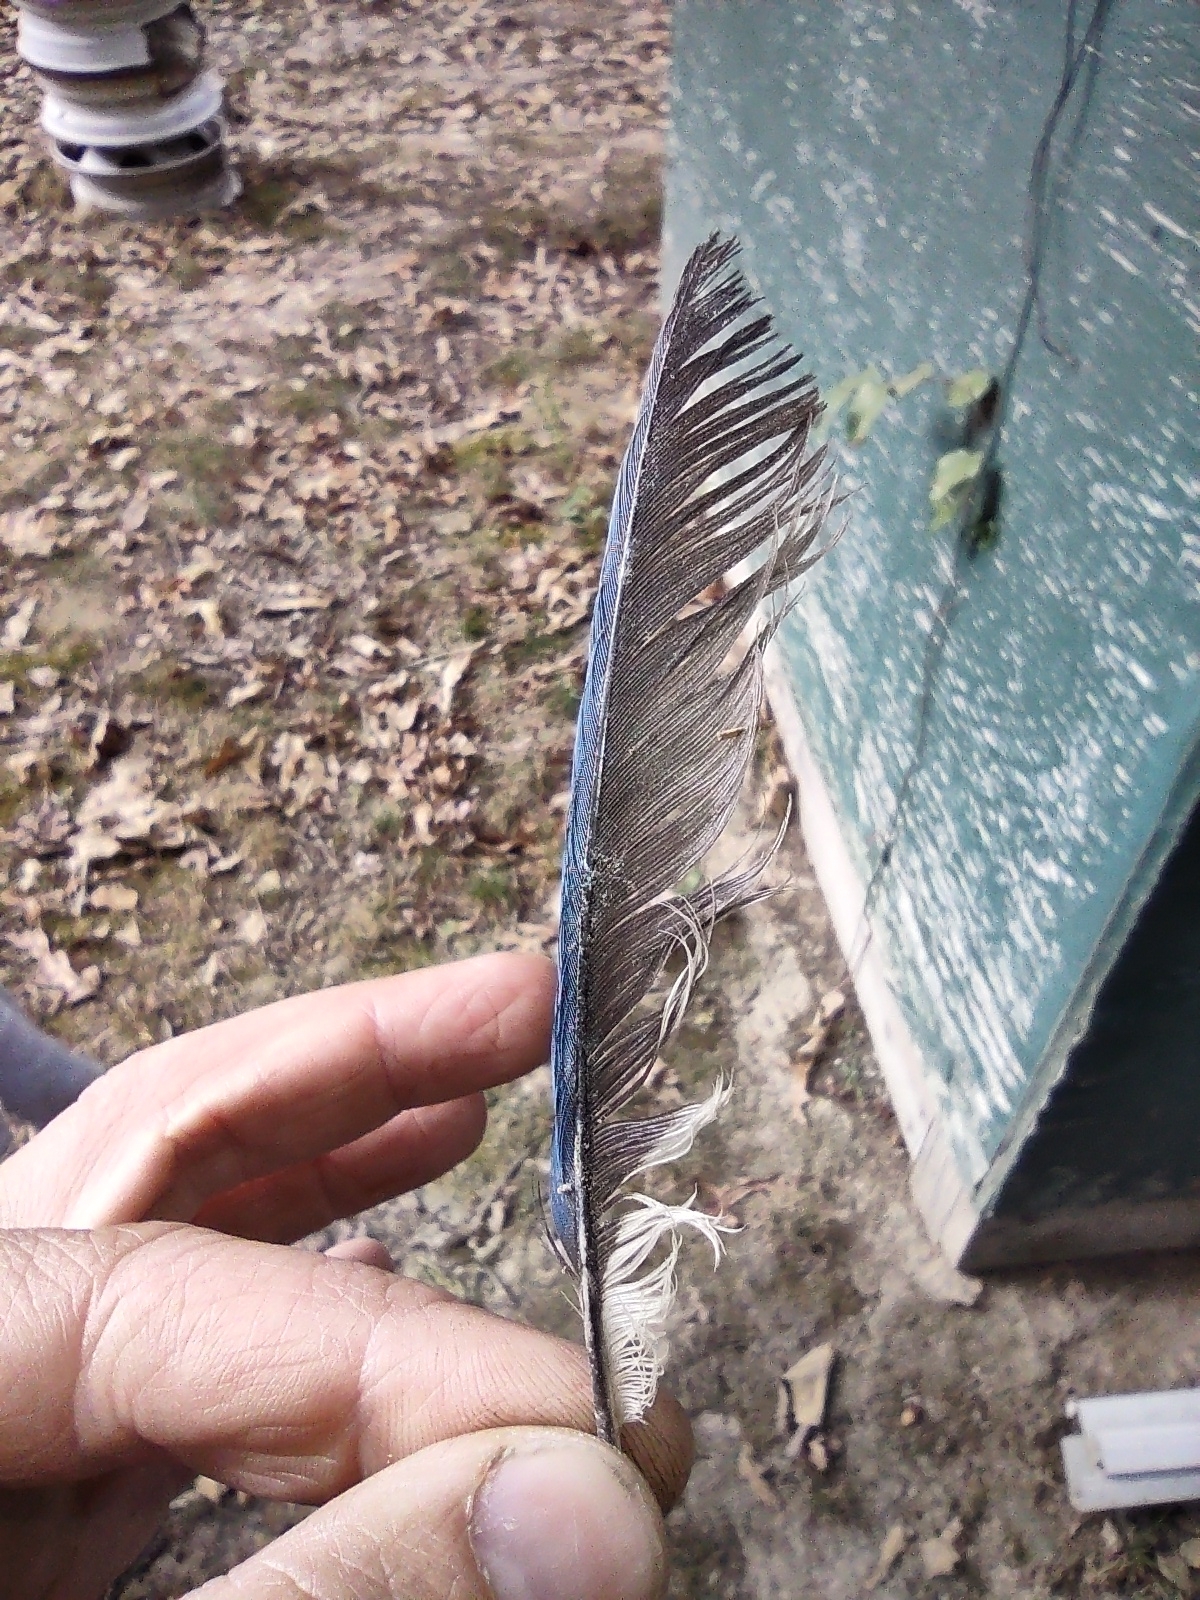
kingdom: Animalia
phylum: Chordata
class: Aves
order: Passeriformes
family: Corvidae
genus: Cyanocitta
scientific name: Cyanocitta cristata
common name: Blue jay
